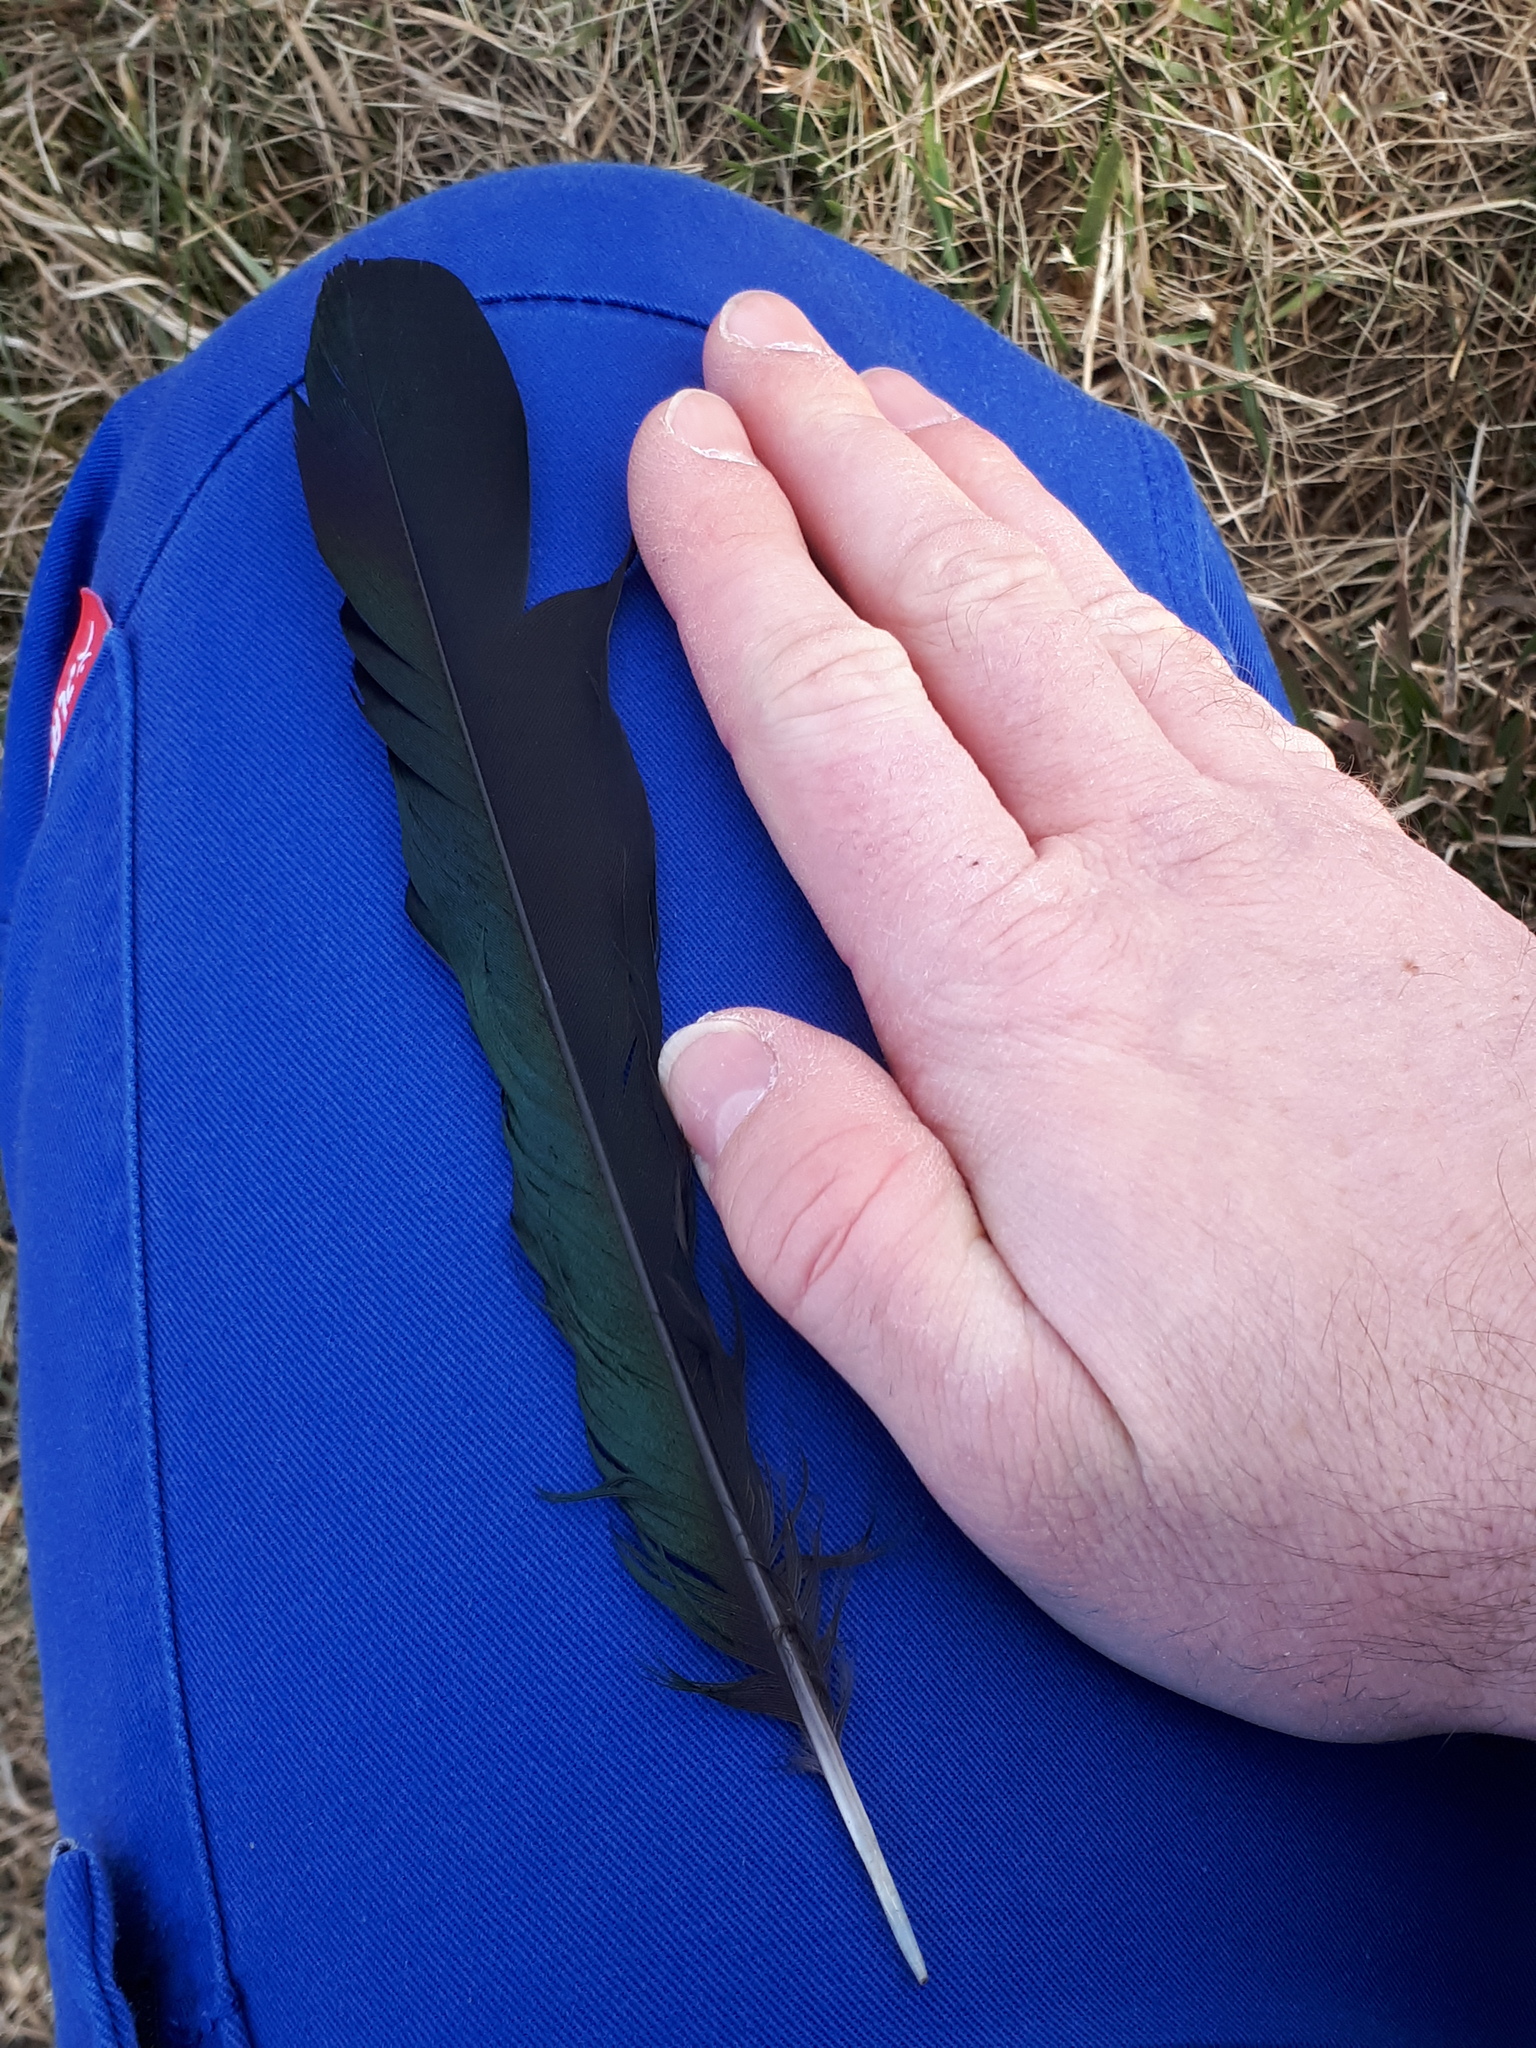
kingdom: Animalia
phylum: Chordata
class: Aves
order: Passeriformes
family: Corvidae
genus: Pica
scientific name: Pica pica
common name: Eurasian magpie
